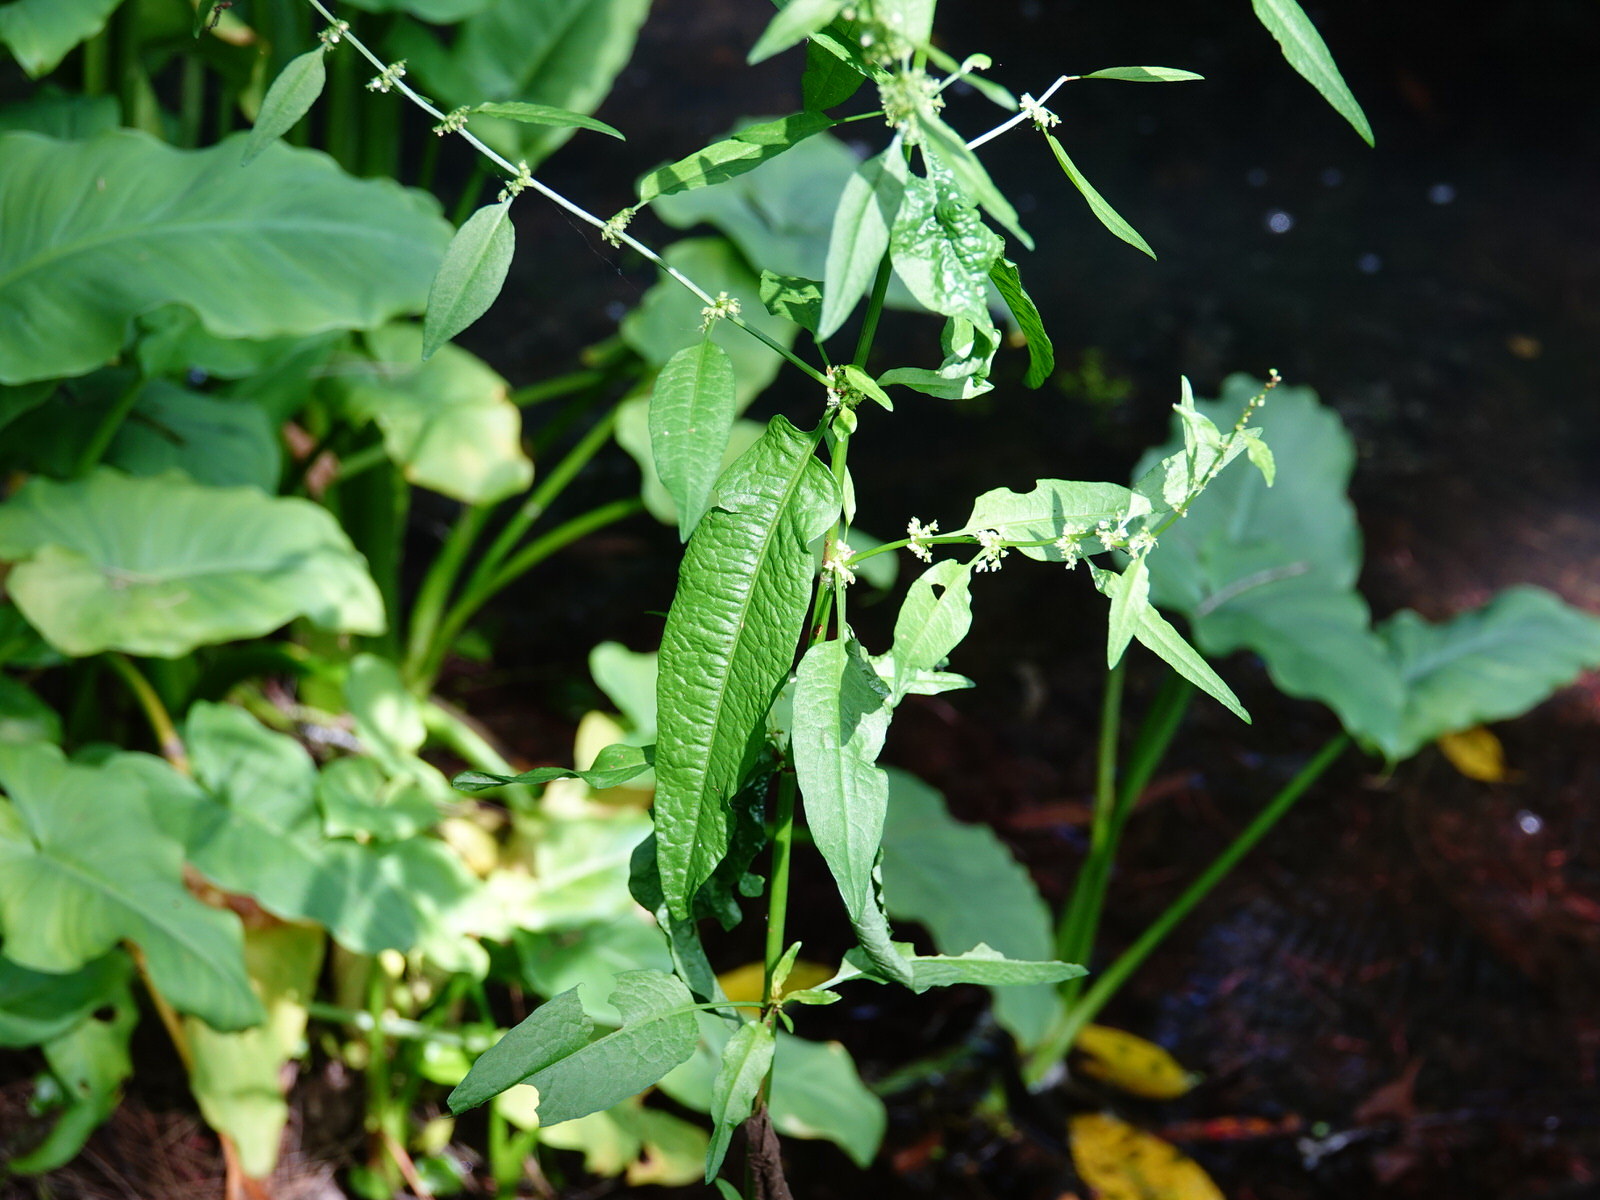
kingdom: Plantae
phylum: Tracheophyta
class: Magnoliopsida
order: Caryophyllales
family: Polygonaceae
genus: Rumex
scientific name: Rumex conglomeratus
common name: Clustered dock
